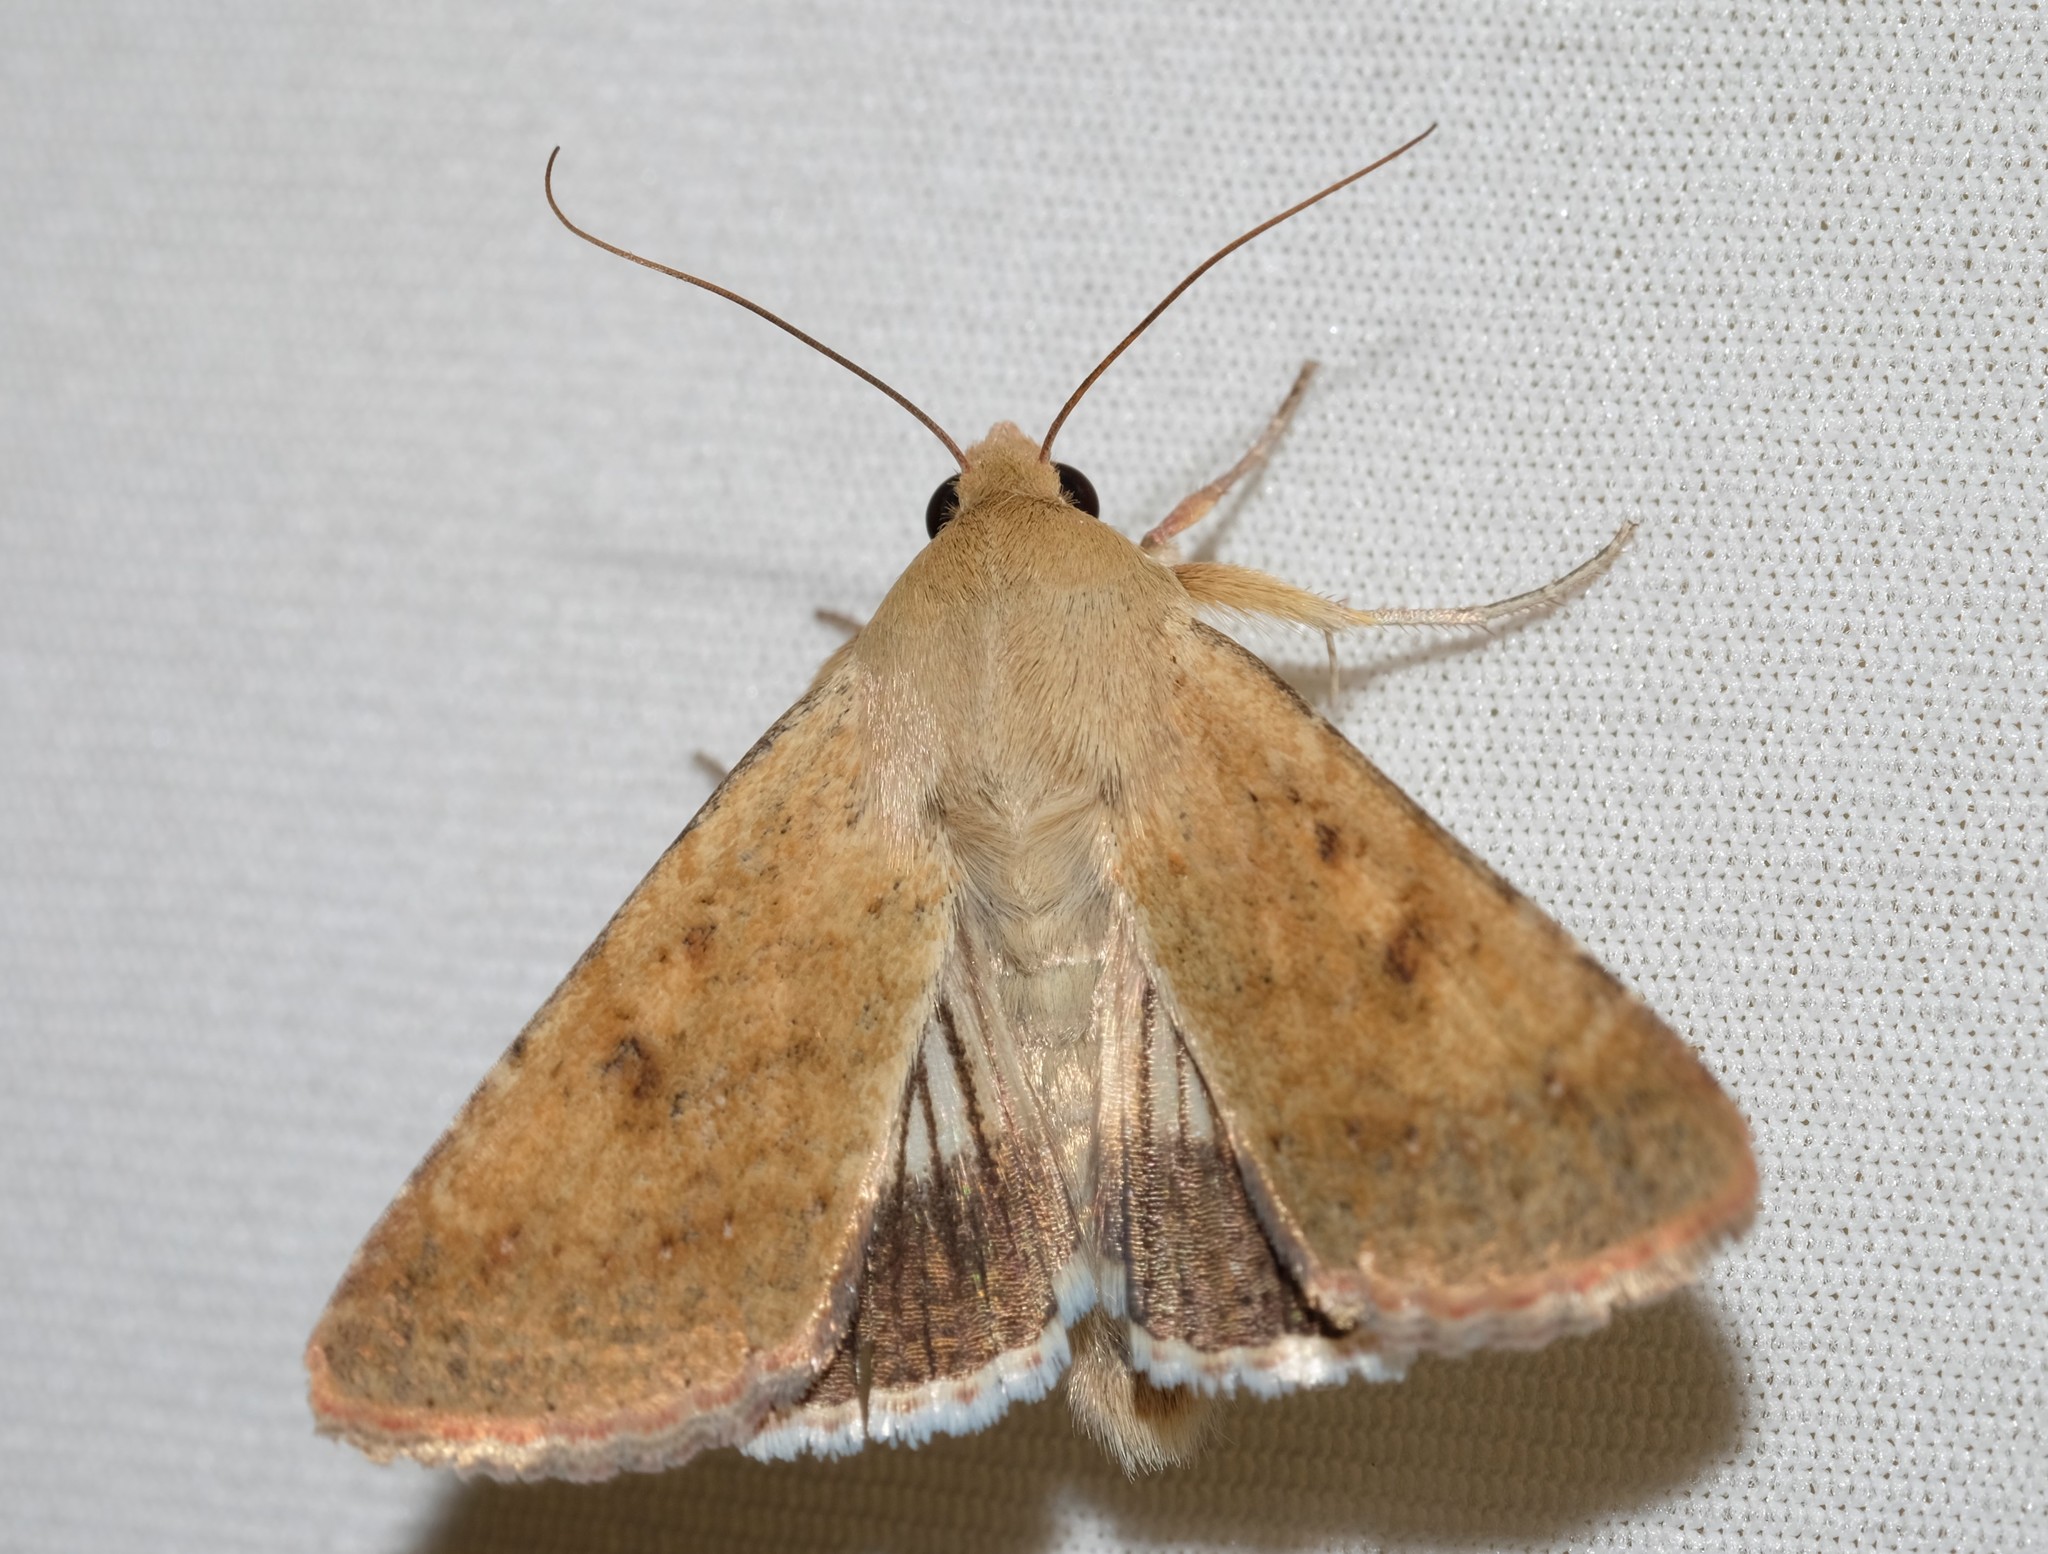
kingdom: Animalia
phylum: Arthropoda
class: Insecta
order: Lepidoptera
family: Noctuidae
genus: Helicoverpa
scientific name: Helicoverpa punctigera
